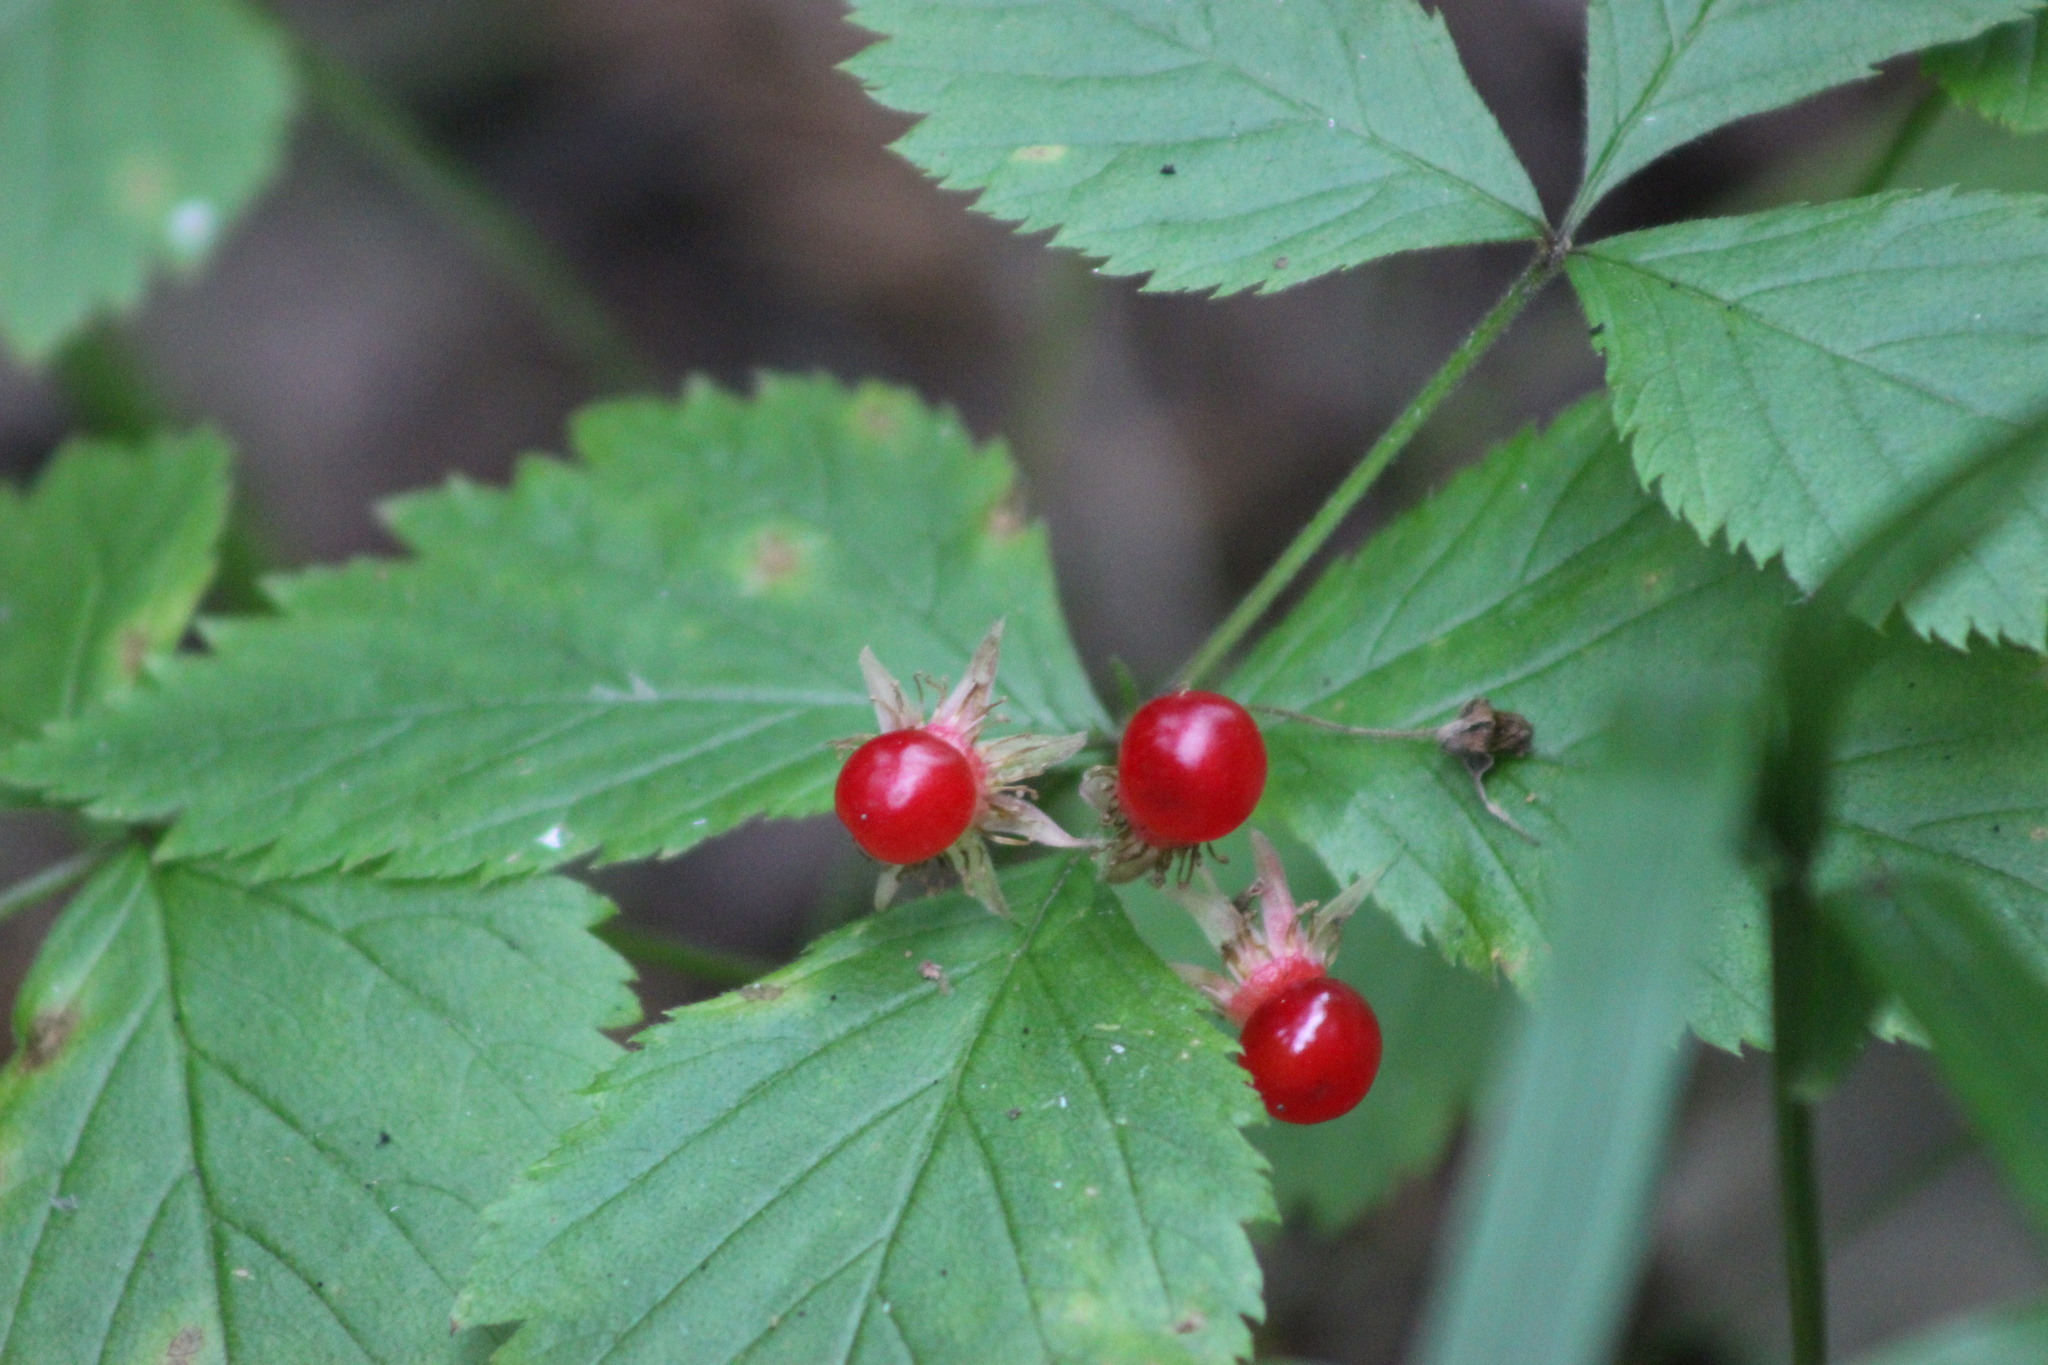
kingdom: Plantae
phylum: Tracheophyta
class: Magnoliopsida
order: Rosales
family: Rosaceae
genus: Rubus
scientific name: Rubus saxatilis
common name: Stone bramble
